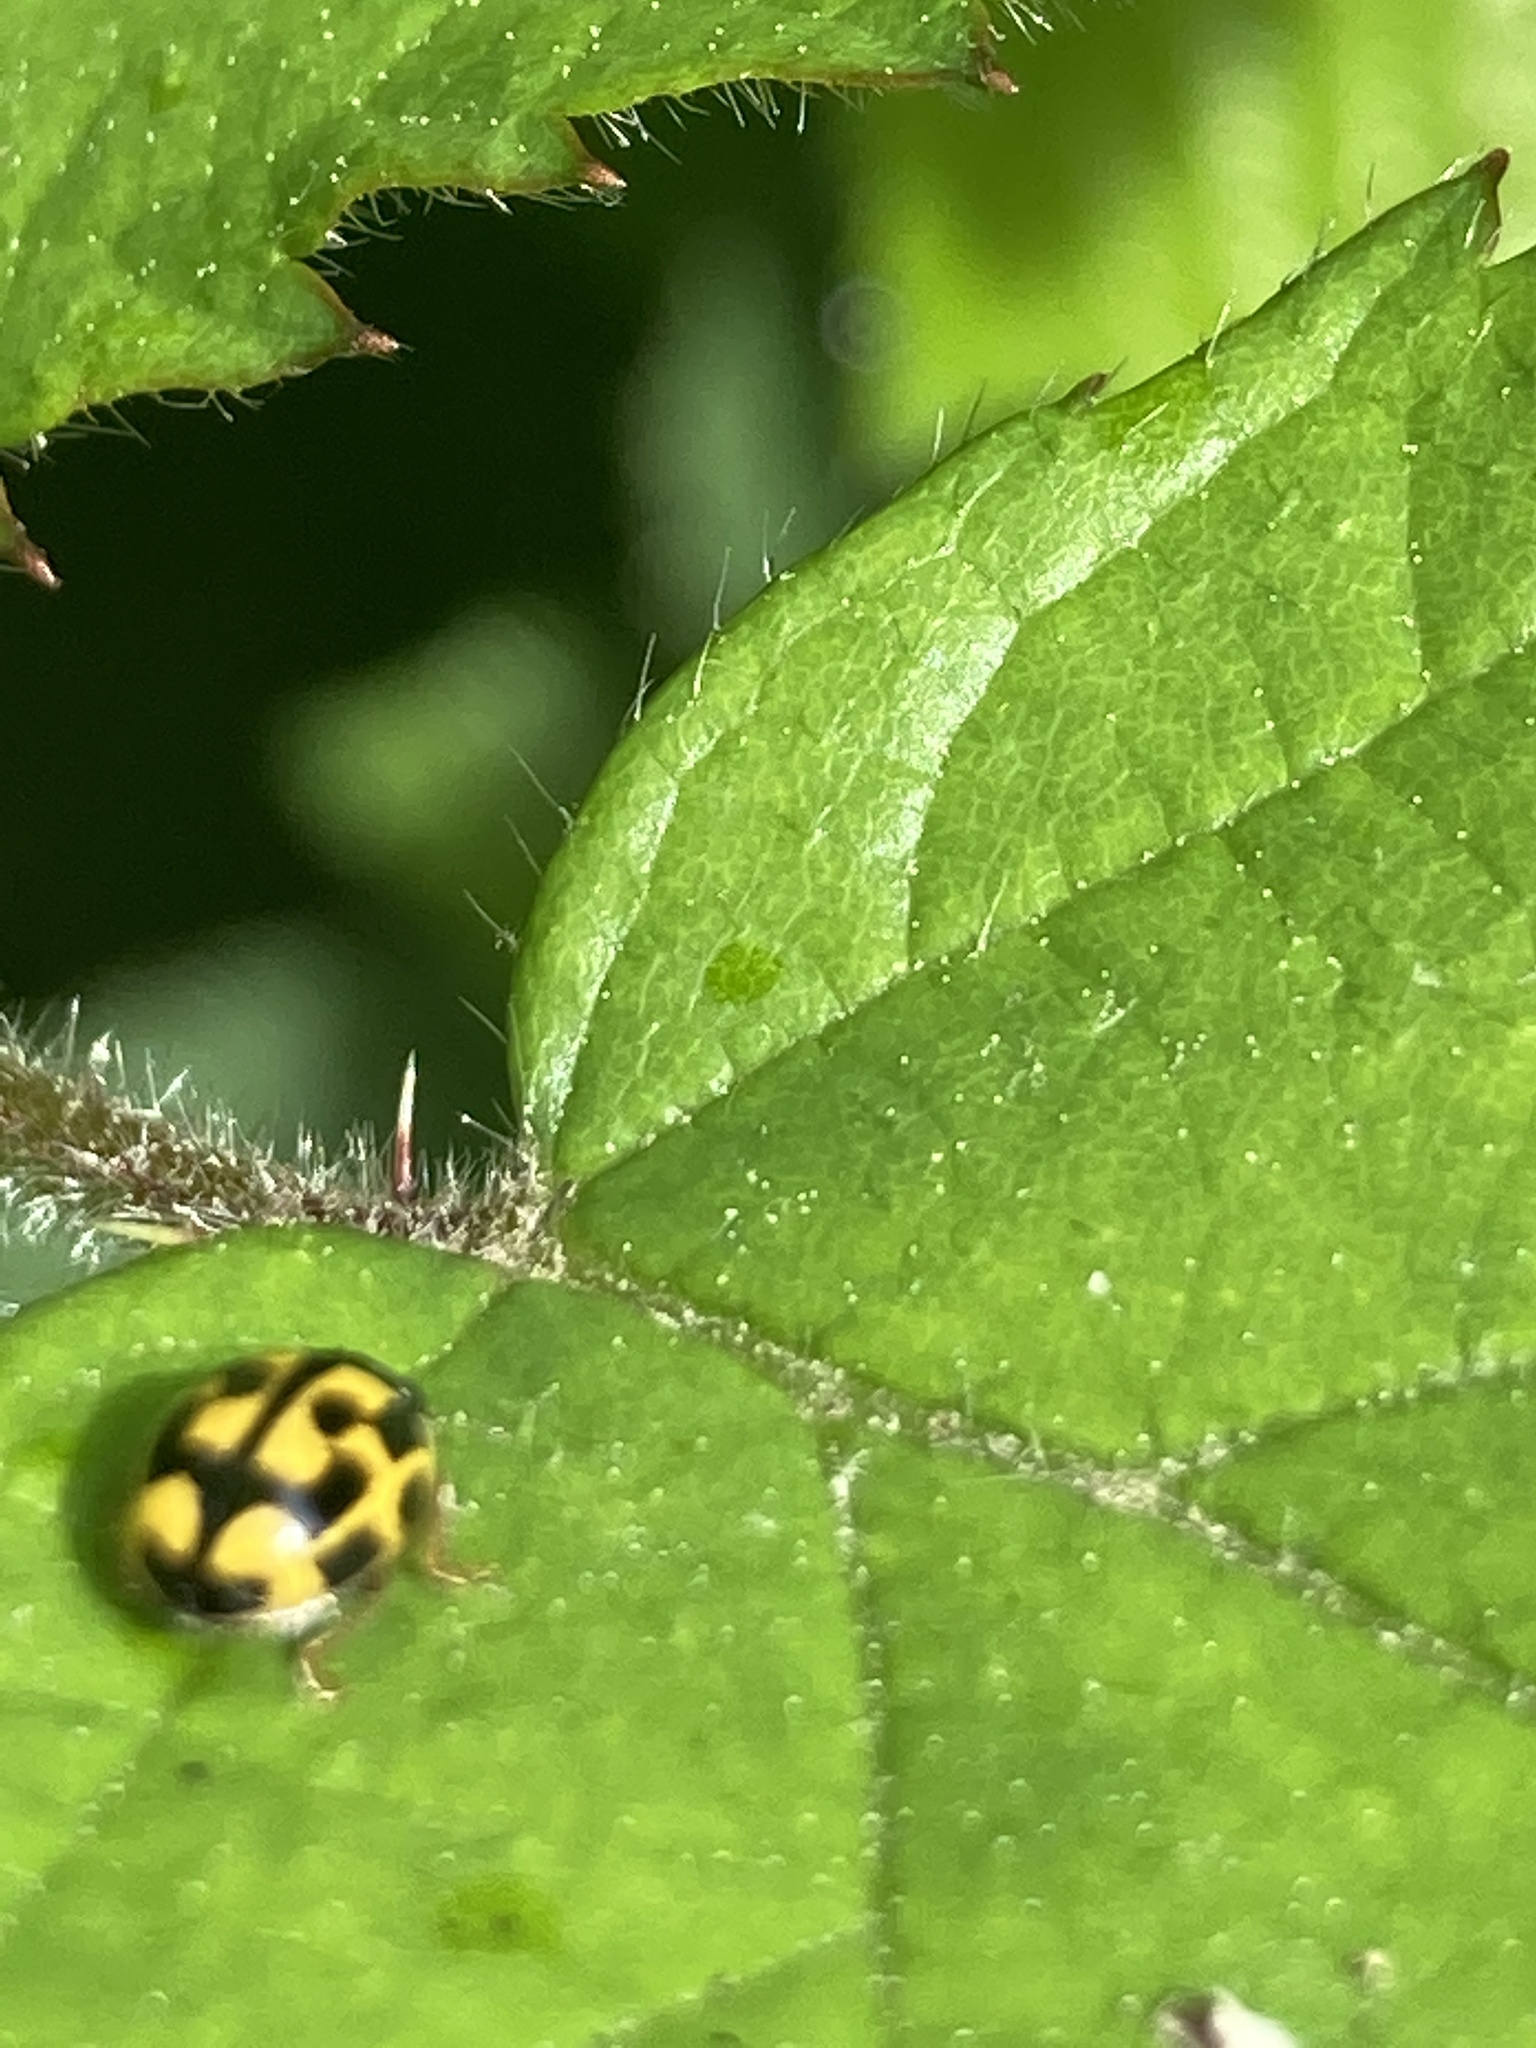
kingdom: Animalia
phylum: Arthropoda
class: Insecta
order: Coleoptera
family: Coccinellidae
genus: Propylaea
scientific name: Propylaea quatuordecimpunctata
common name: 14-spotted ladybird beetle
